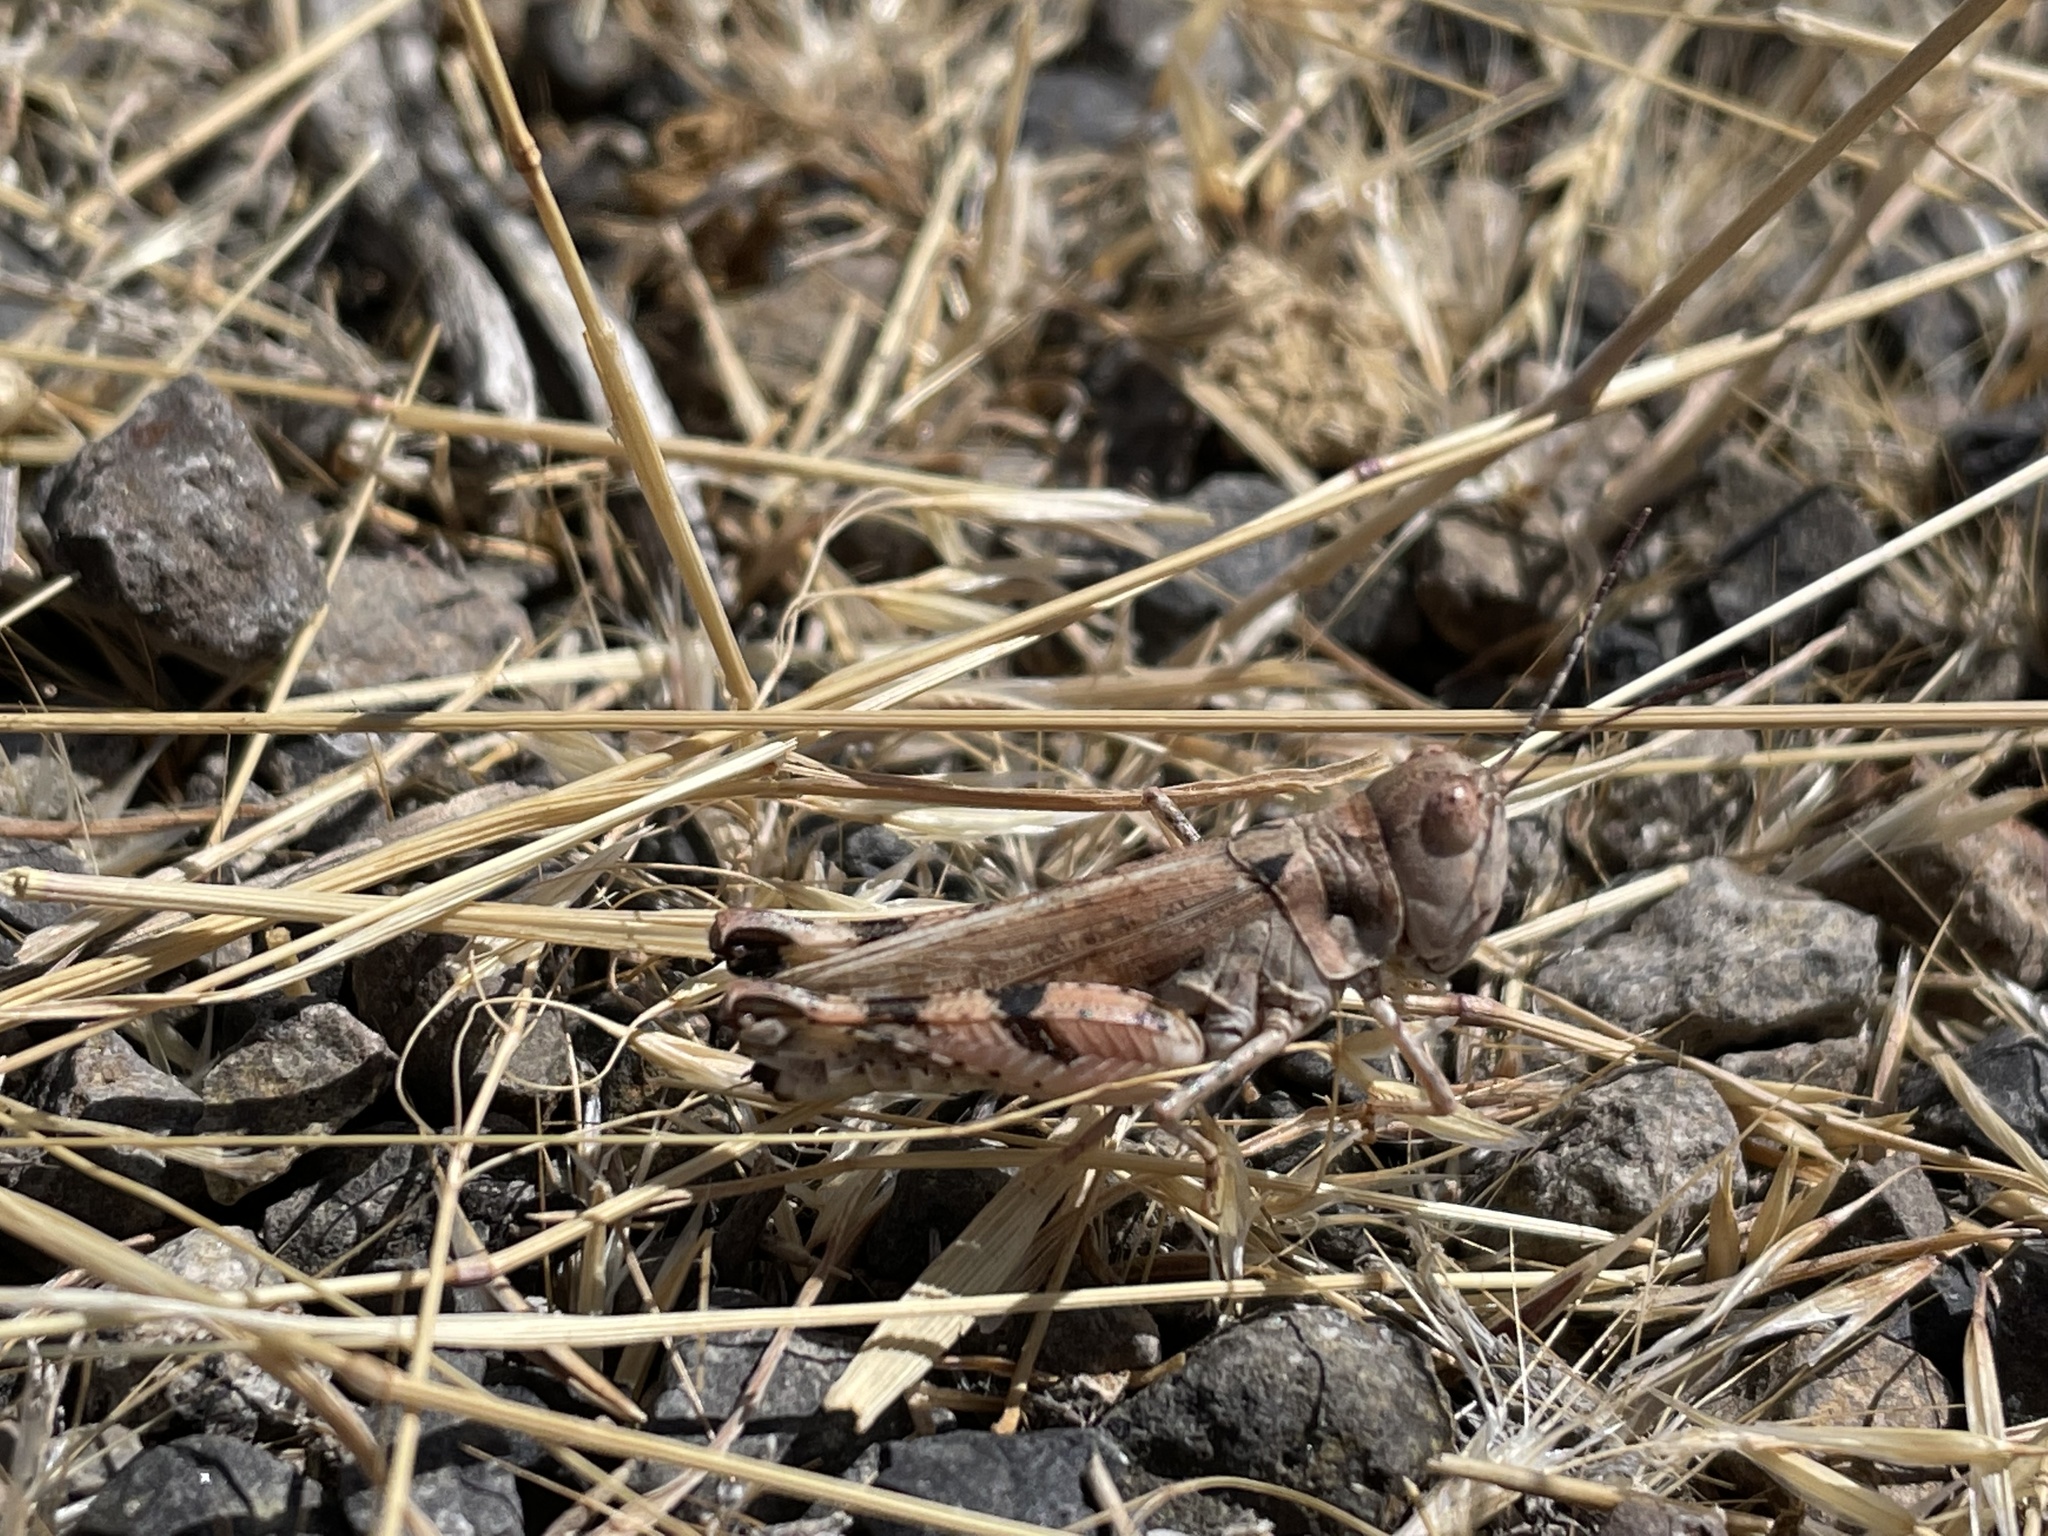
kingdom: Animalia
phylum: Arthropoda
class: Insecta
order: Orthoptera
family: Acrididae
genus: Aulocara
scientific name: Aulocara elliotti
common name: Bigheaded grasshopper
